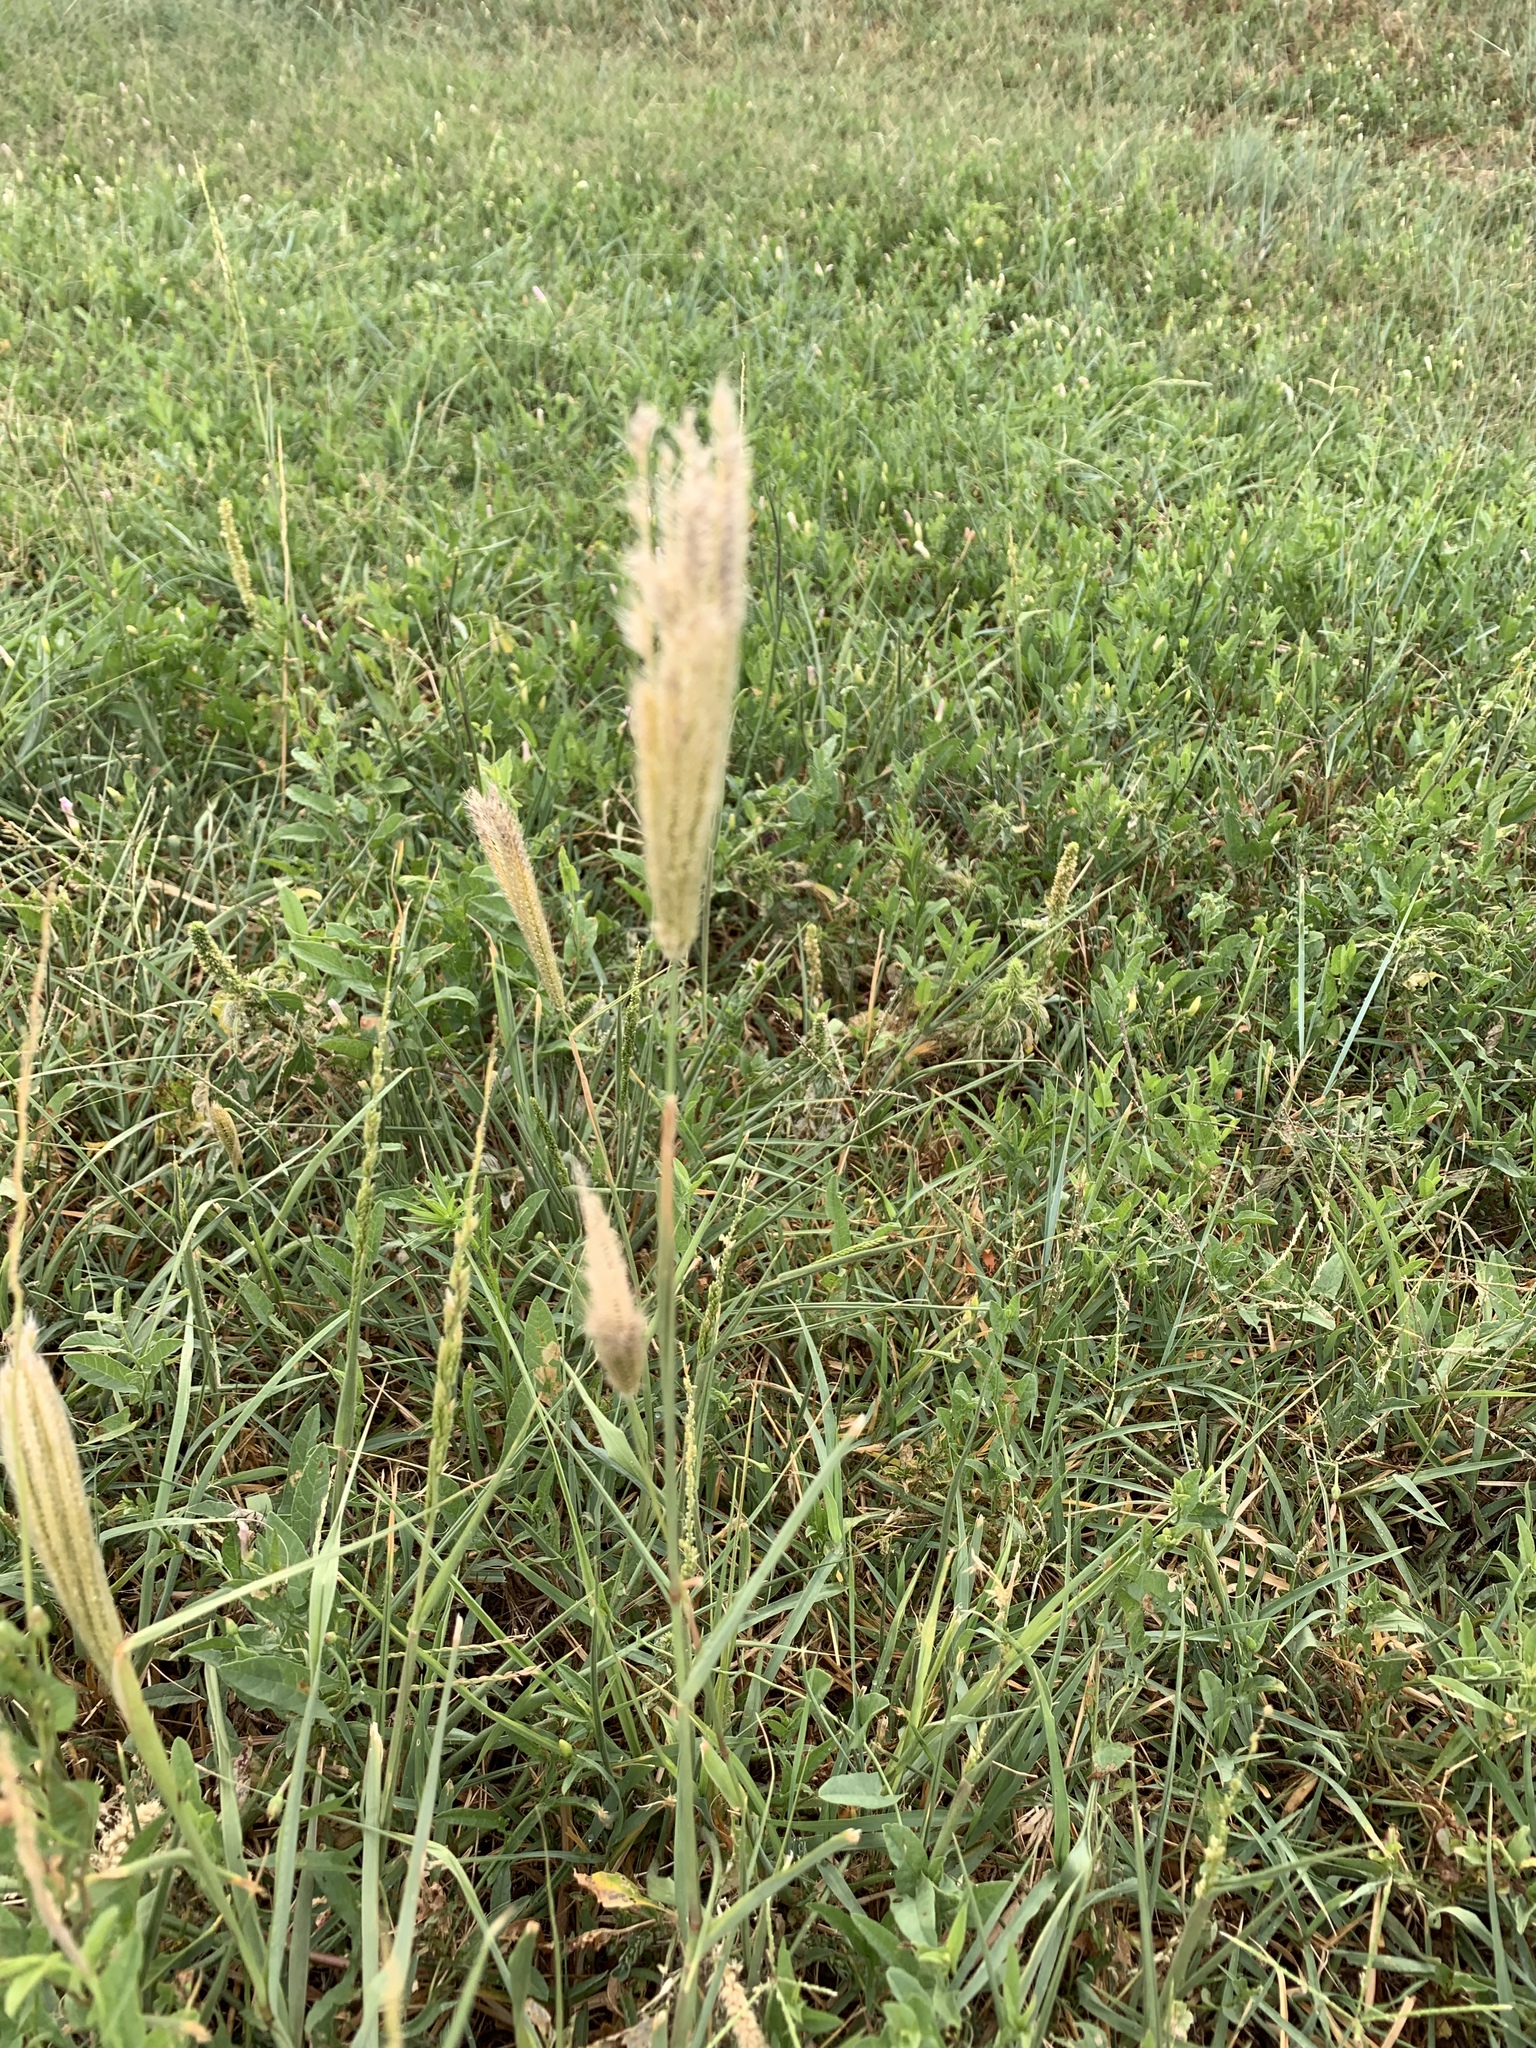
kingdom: Plantae
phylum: Tracheophyta
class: Liliopsida
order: Poales
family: Poaceae
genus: Chloris
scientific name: Chloris virgata
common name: Feathery rhodes-grass
